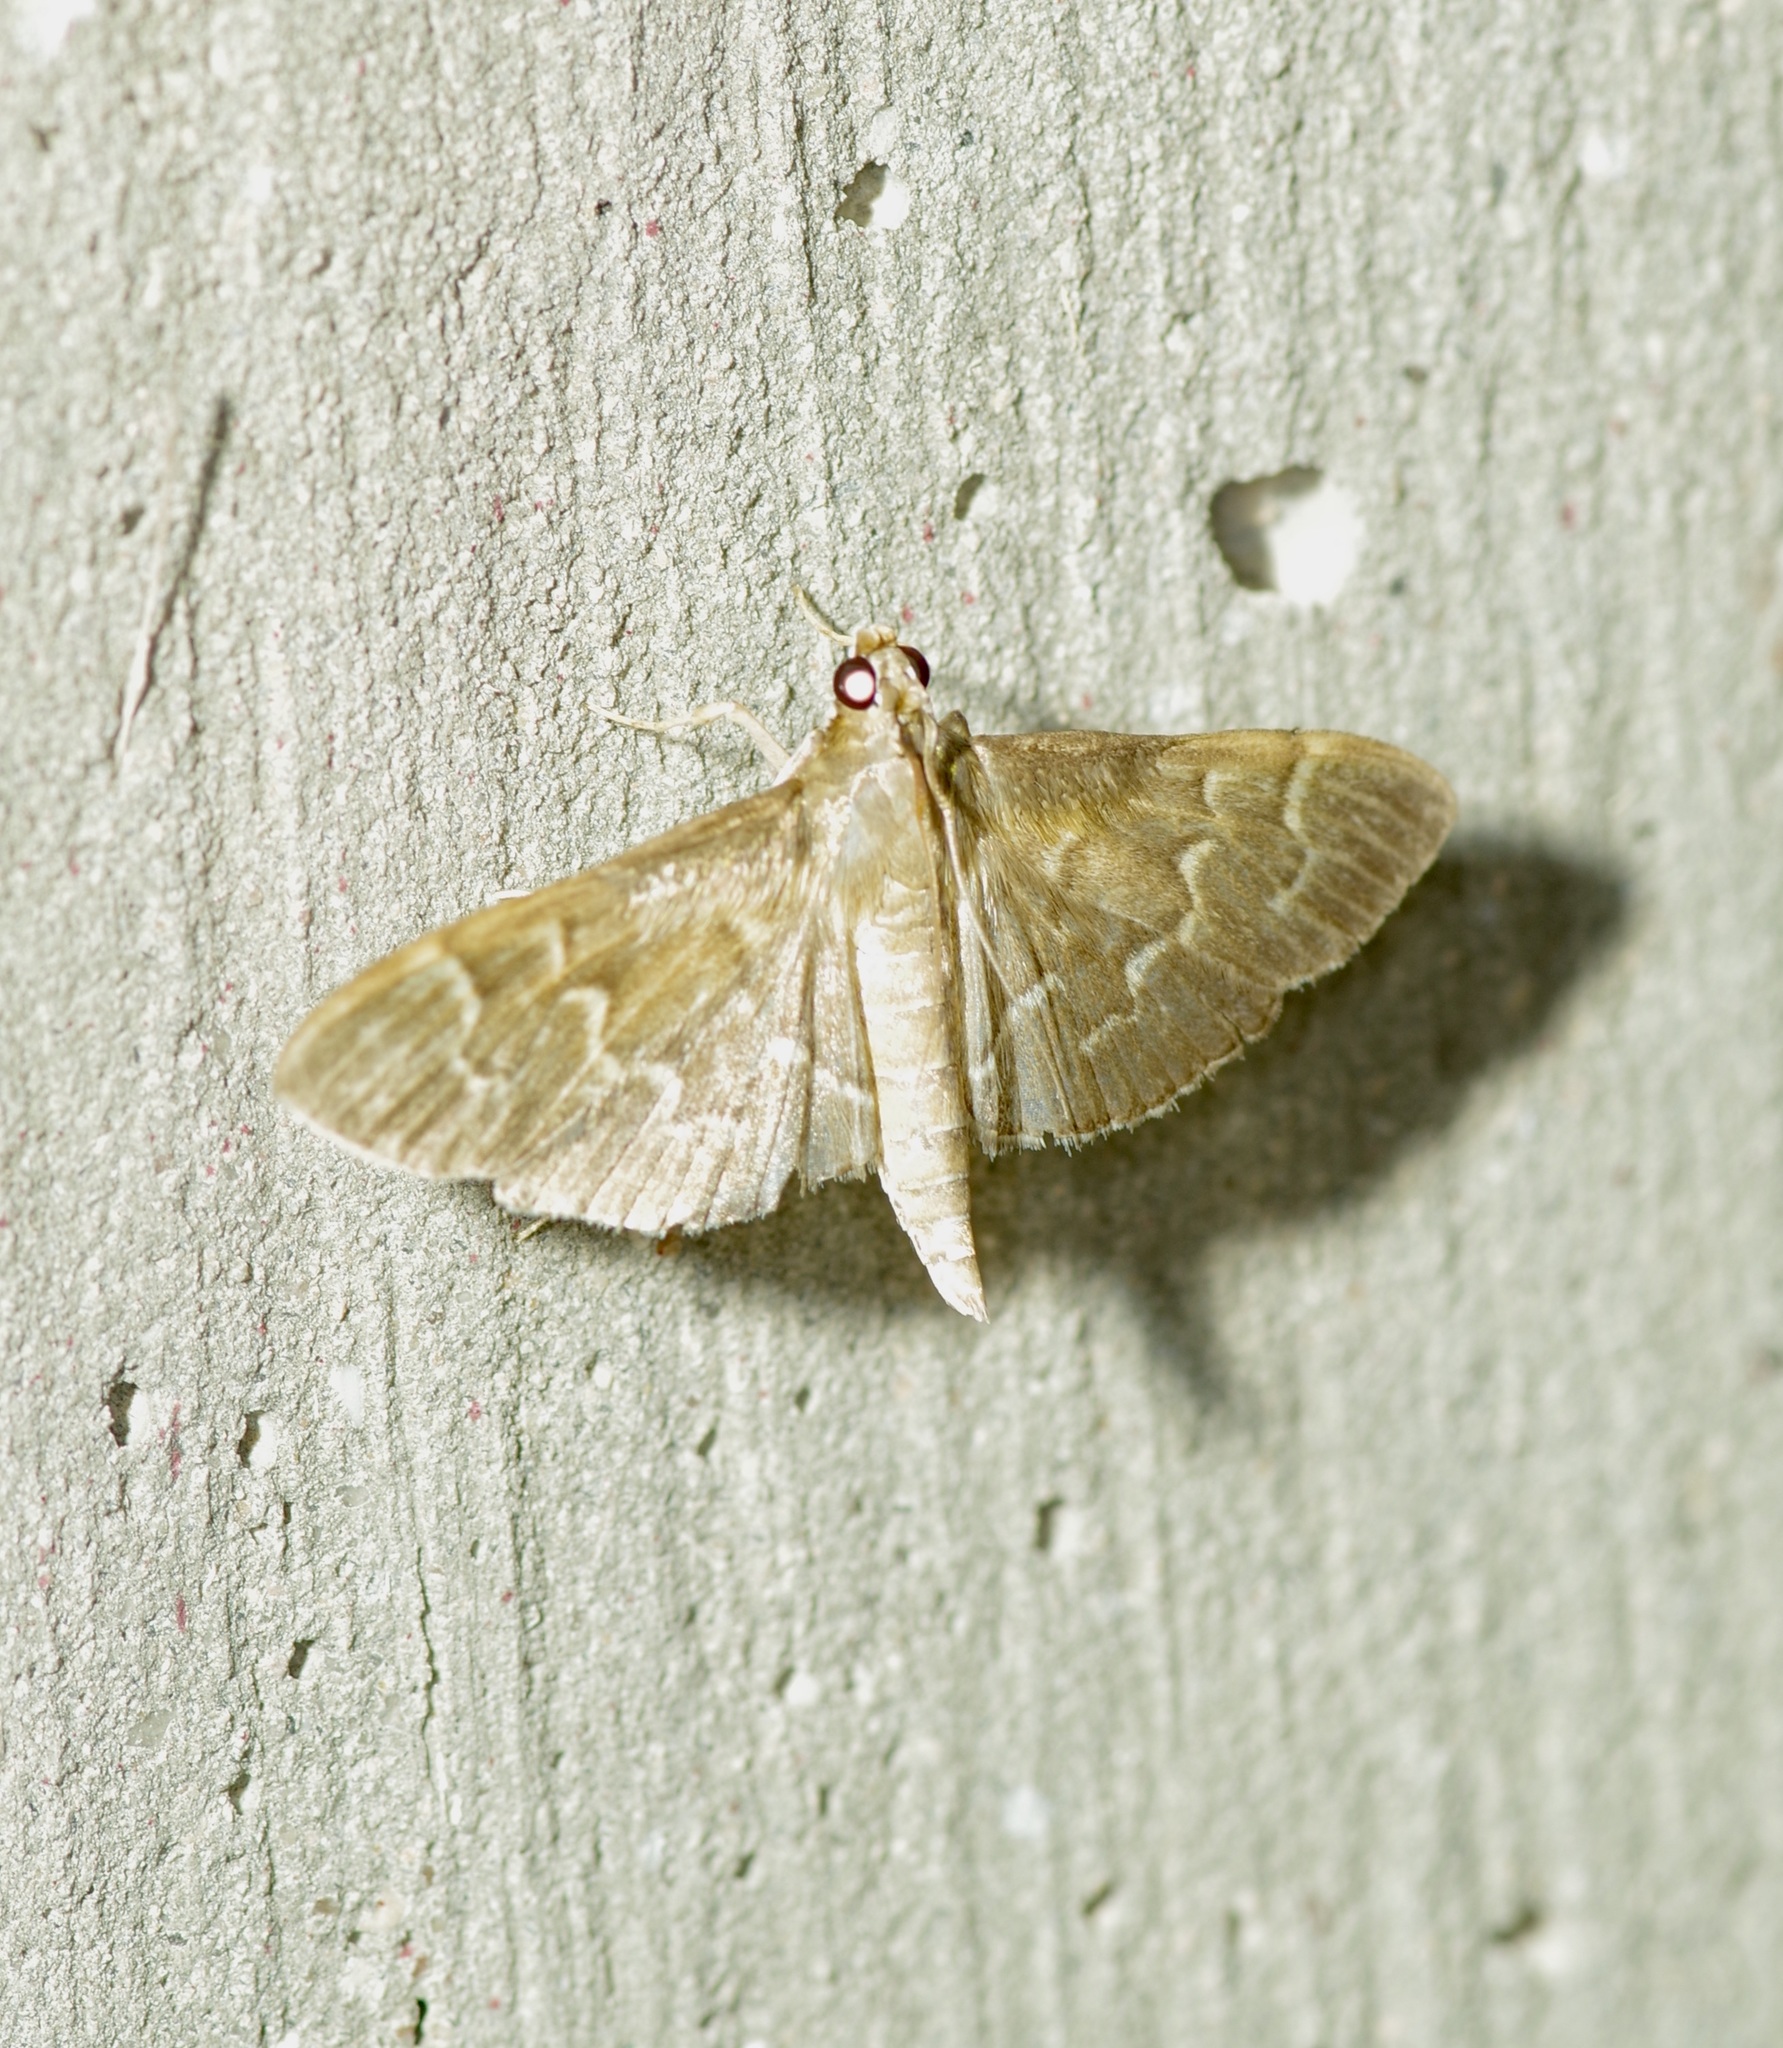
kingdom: Animalia
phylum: Arthropoda
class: Insecta
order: Lepidoptera
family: Crambidae
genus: Pilocrocis
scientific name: Pilocrocis ramentalis
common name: Scraped pilocrocis
